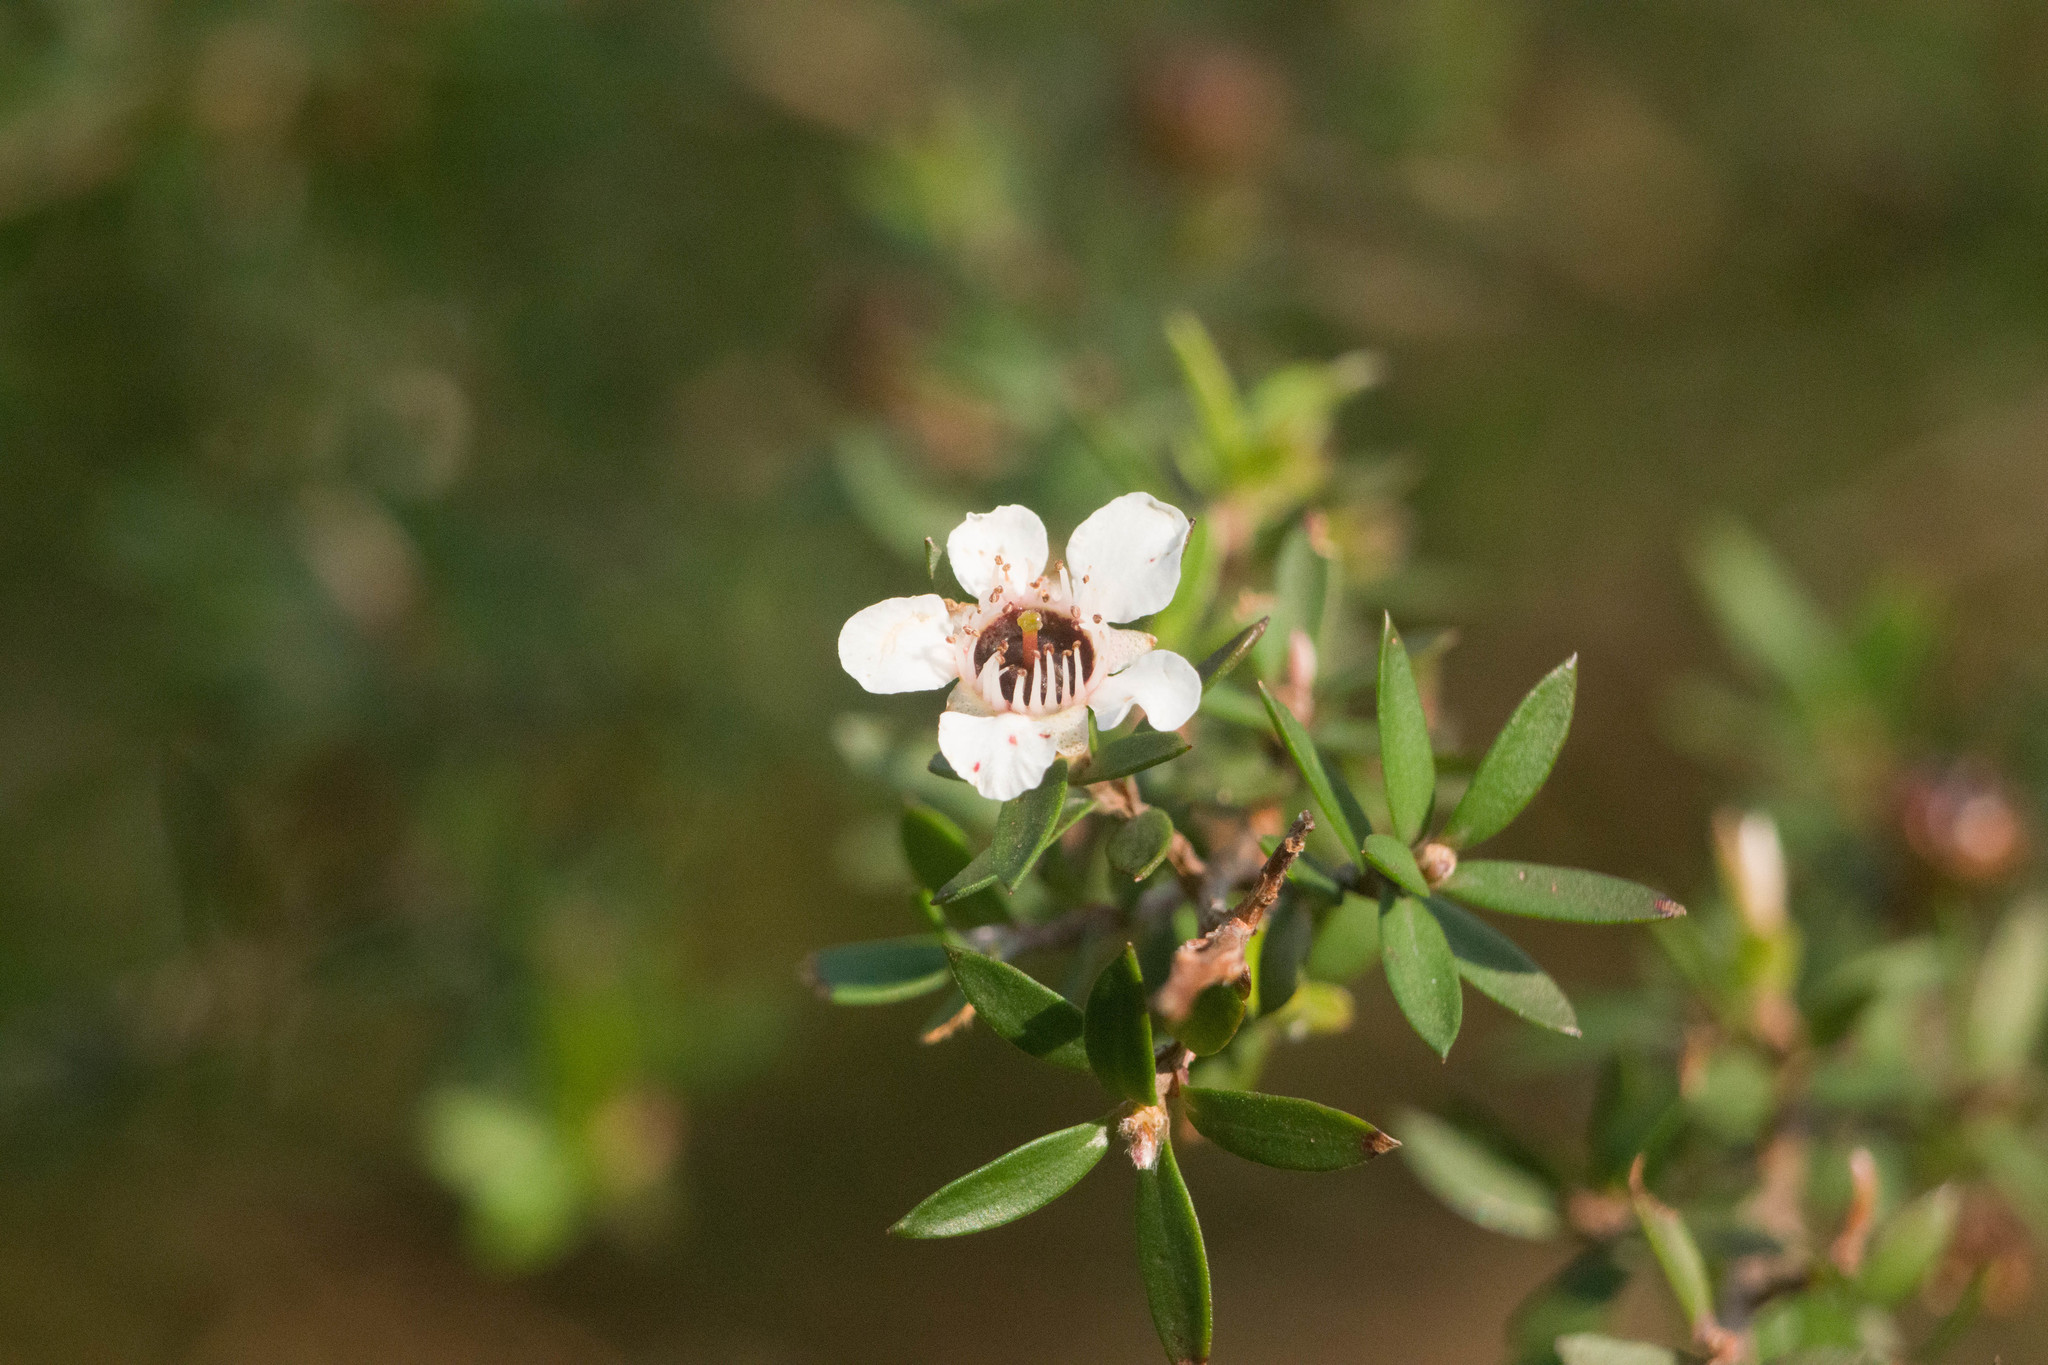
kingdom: Plantae
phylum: Tracheophyta
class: Magnoliopsida
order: Myrtales
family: Myrtaceae
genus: Leptospermum
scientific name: Leptospermum scoparium
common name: Broom tea-tree
